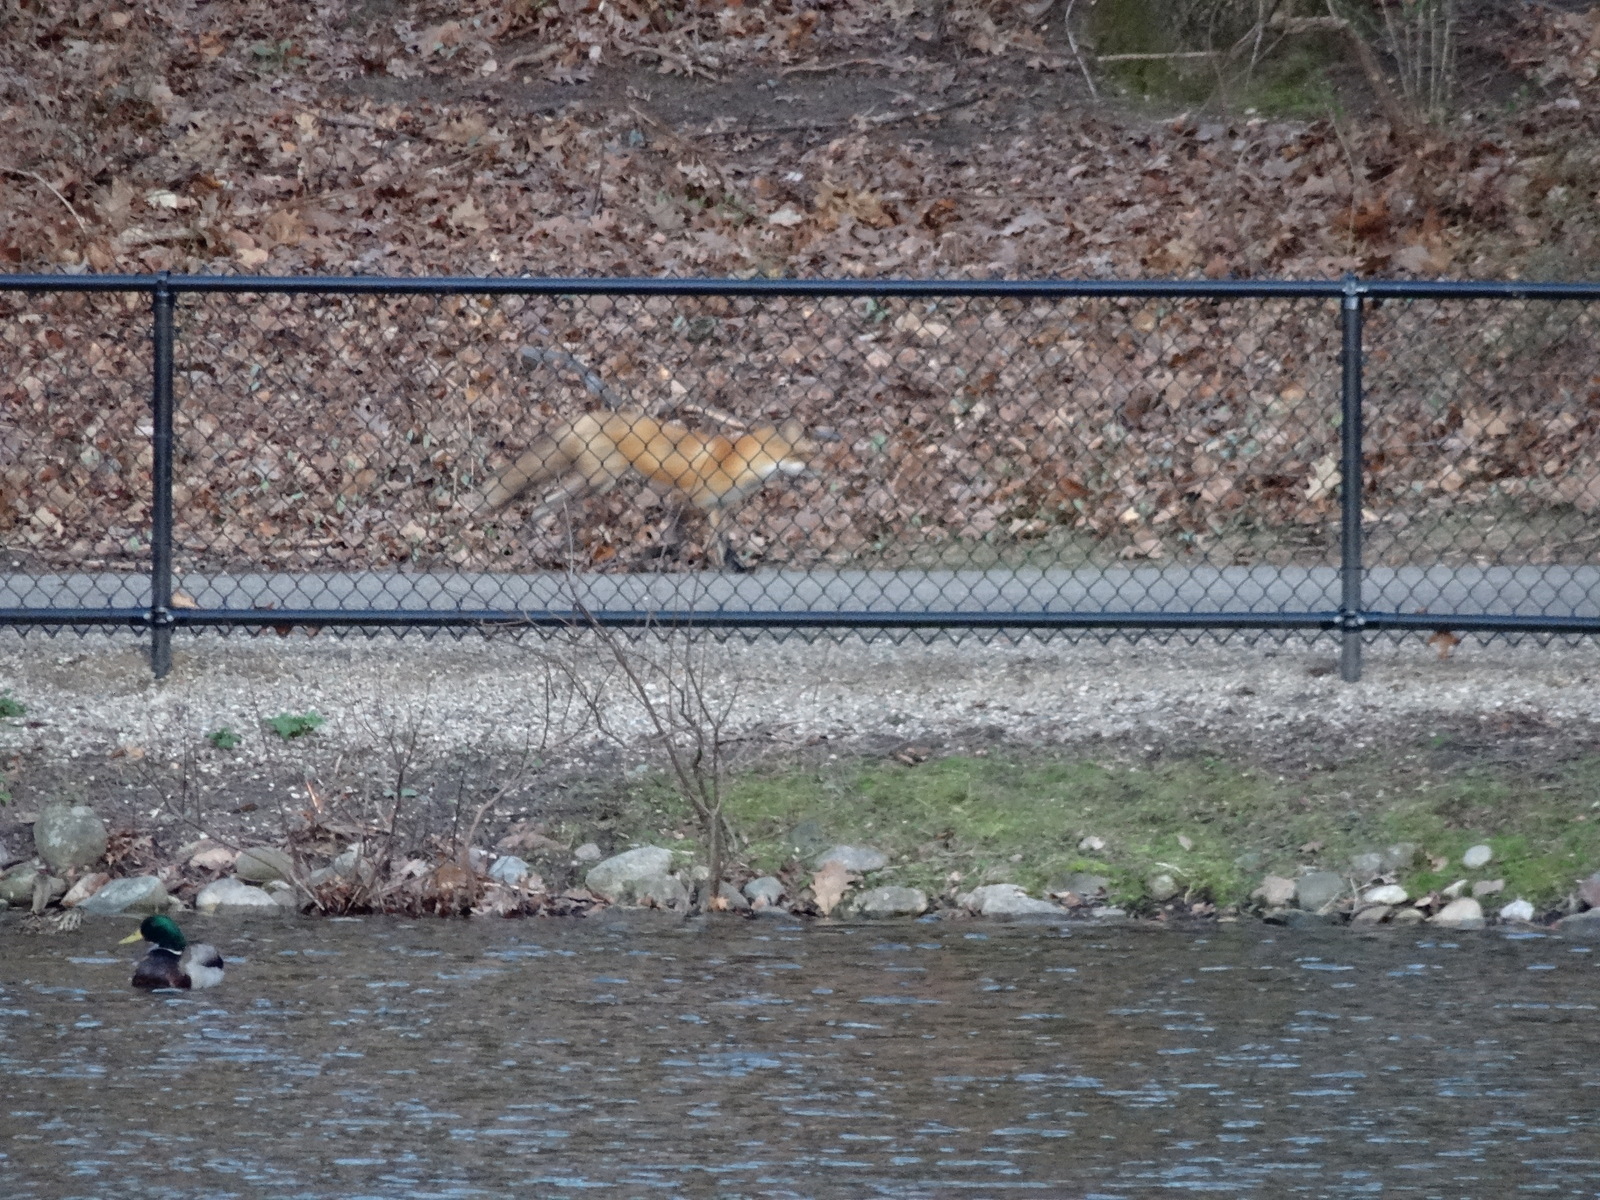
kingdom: Animalia
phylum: Chordata
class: Mammalia
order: Carnivora
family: Canidae
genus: Vulpes
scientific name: Vulpes vulpes
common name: Red fox
